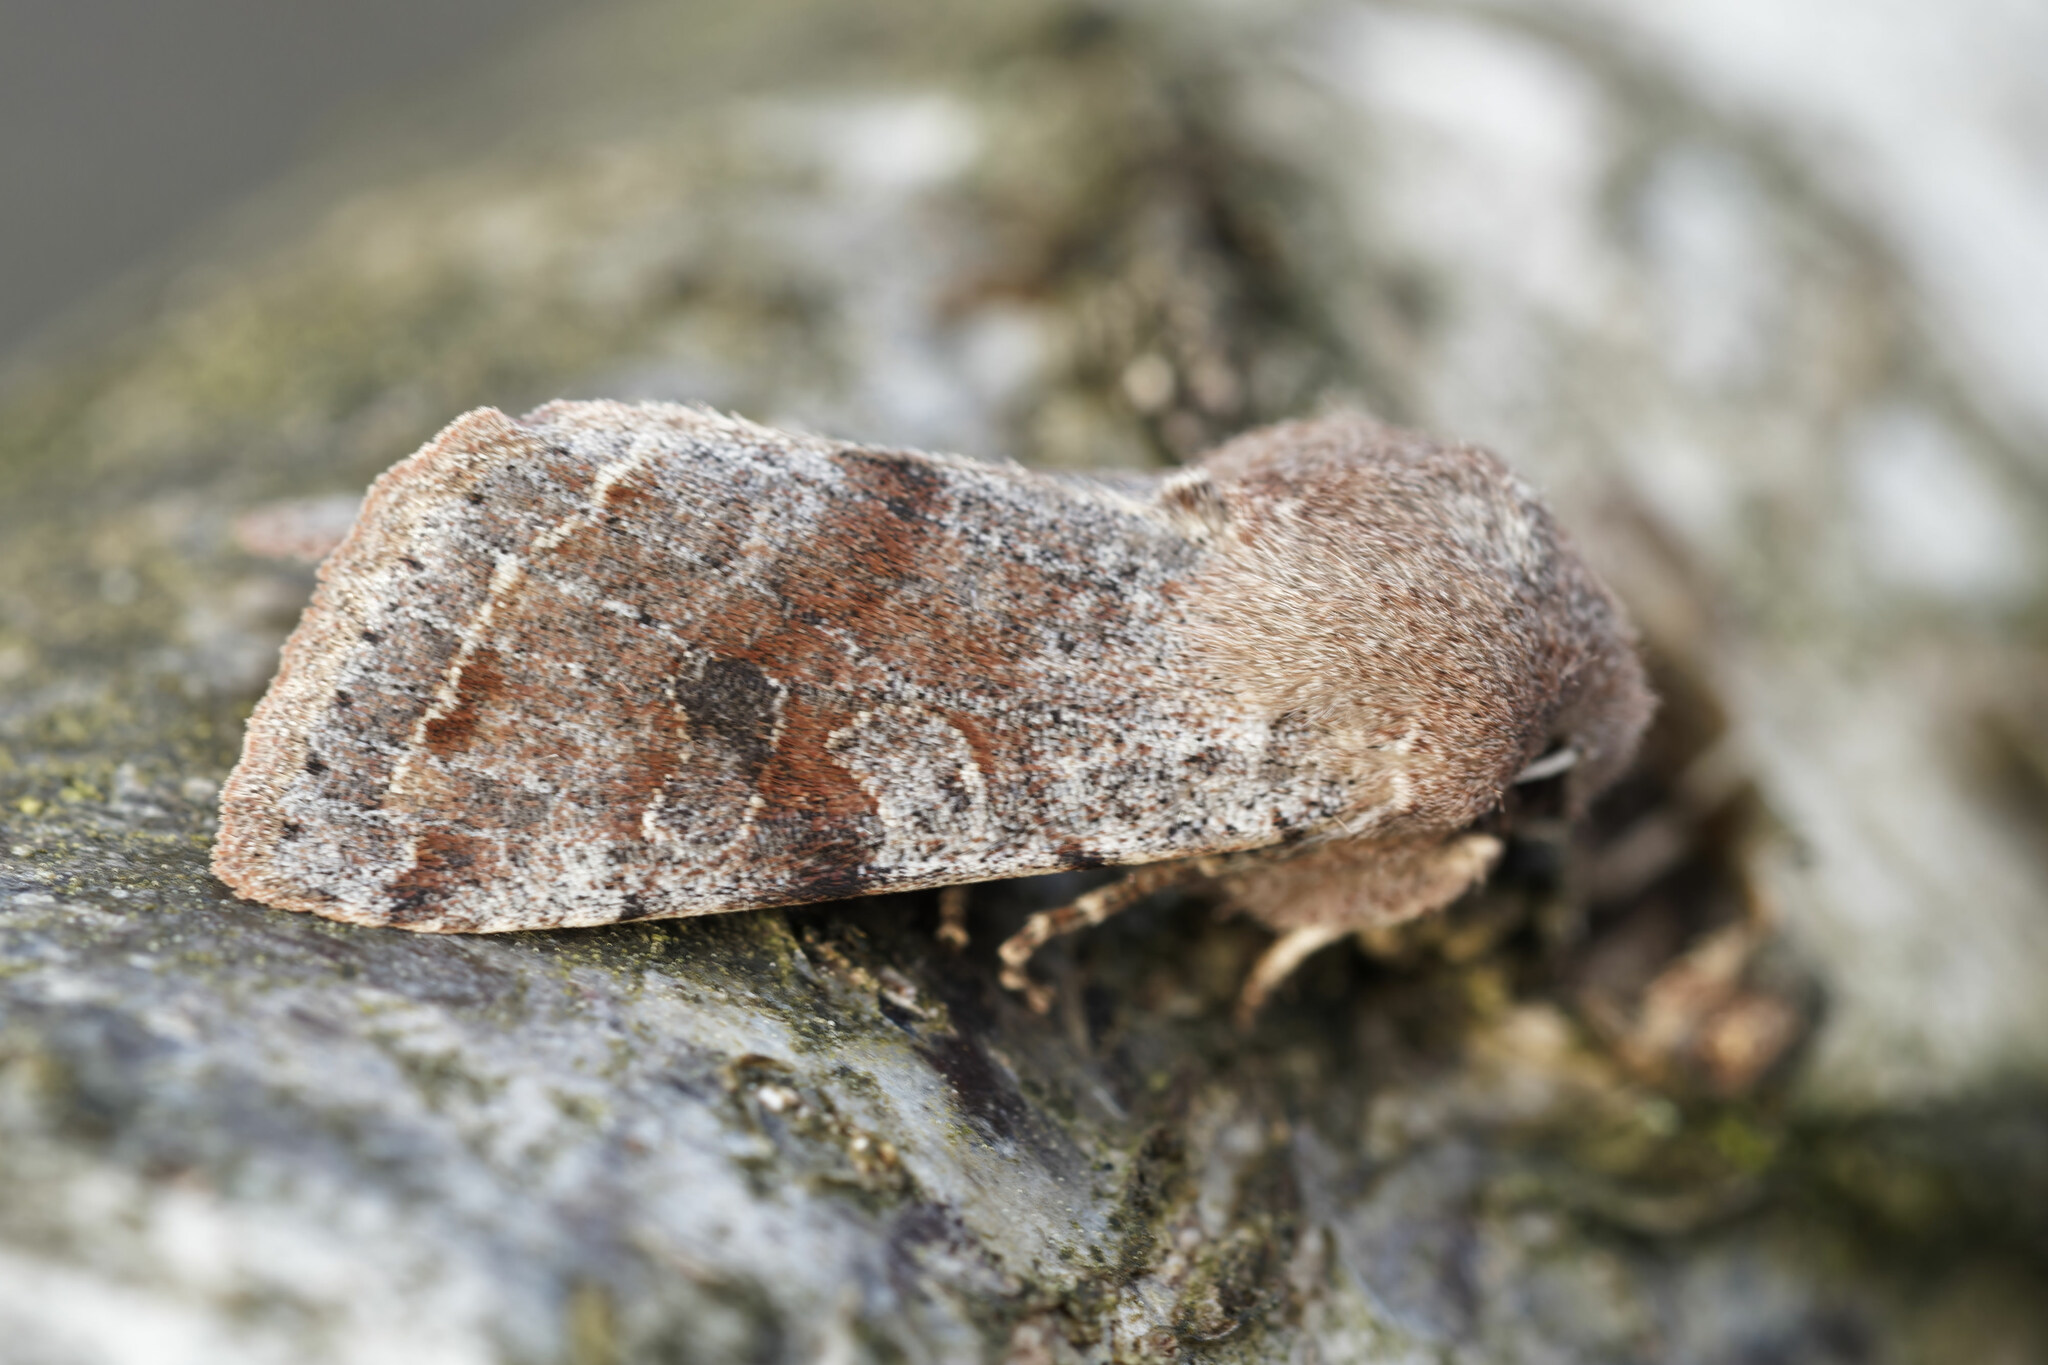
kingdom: Animalia
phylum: Arthropoda
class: Insecta
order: Lepidoptera
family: Noctuidae
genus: Orthosia
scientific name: Orthosia incerta
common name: Clouded drab
